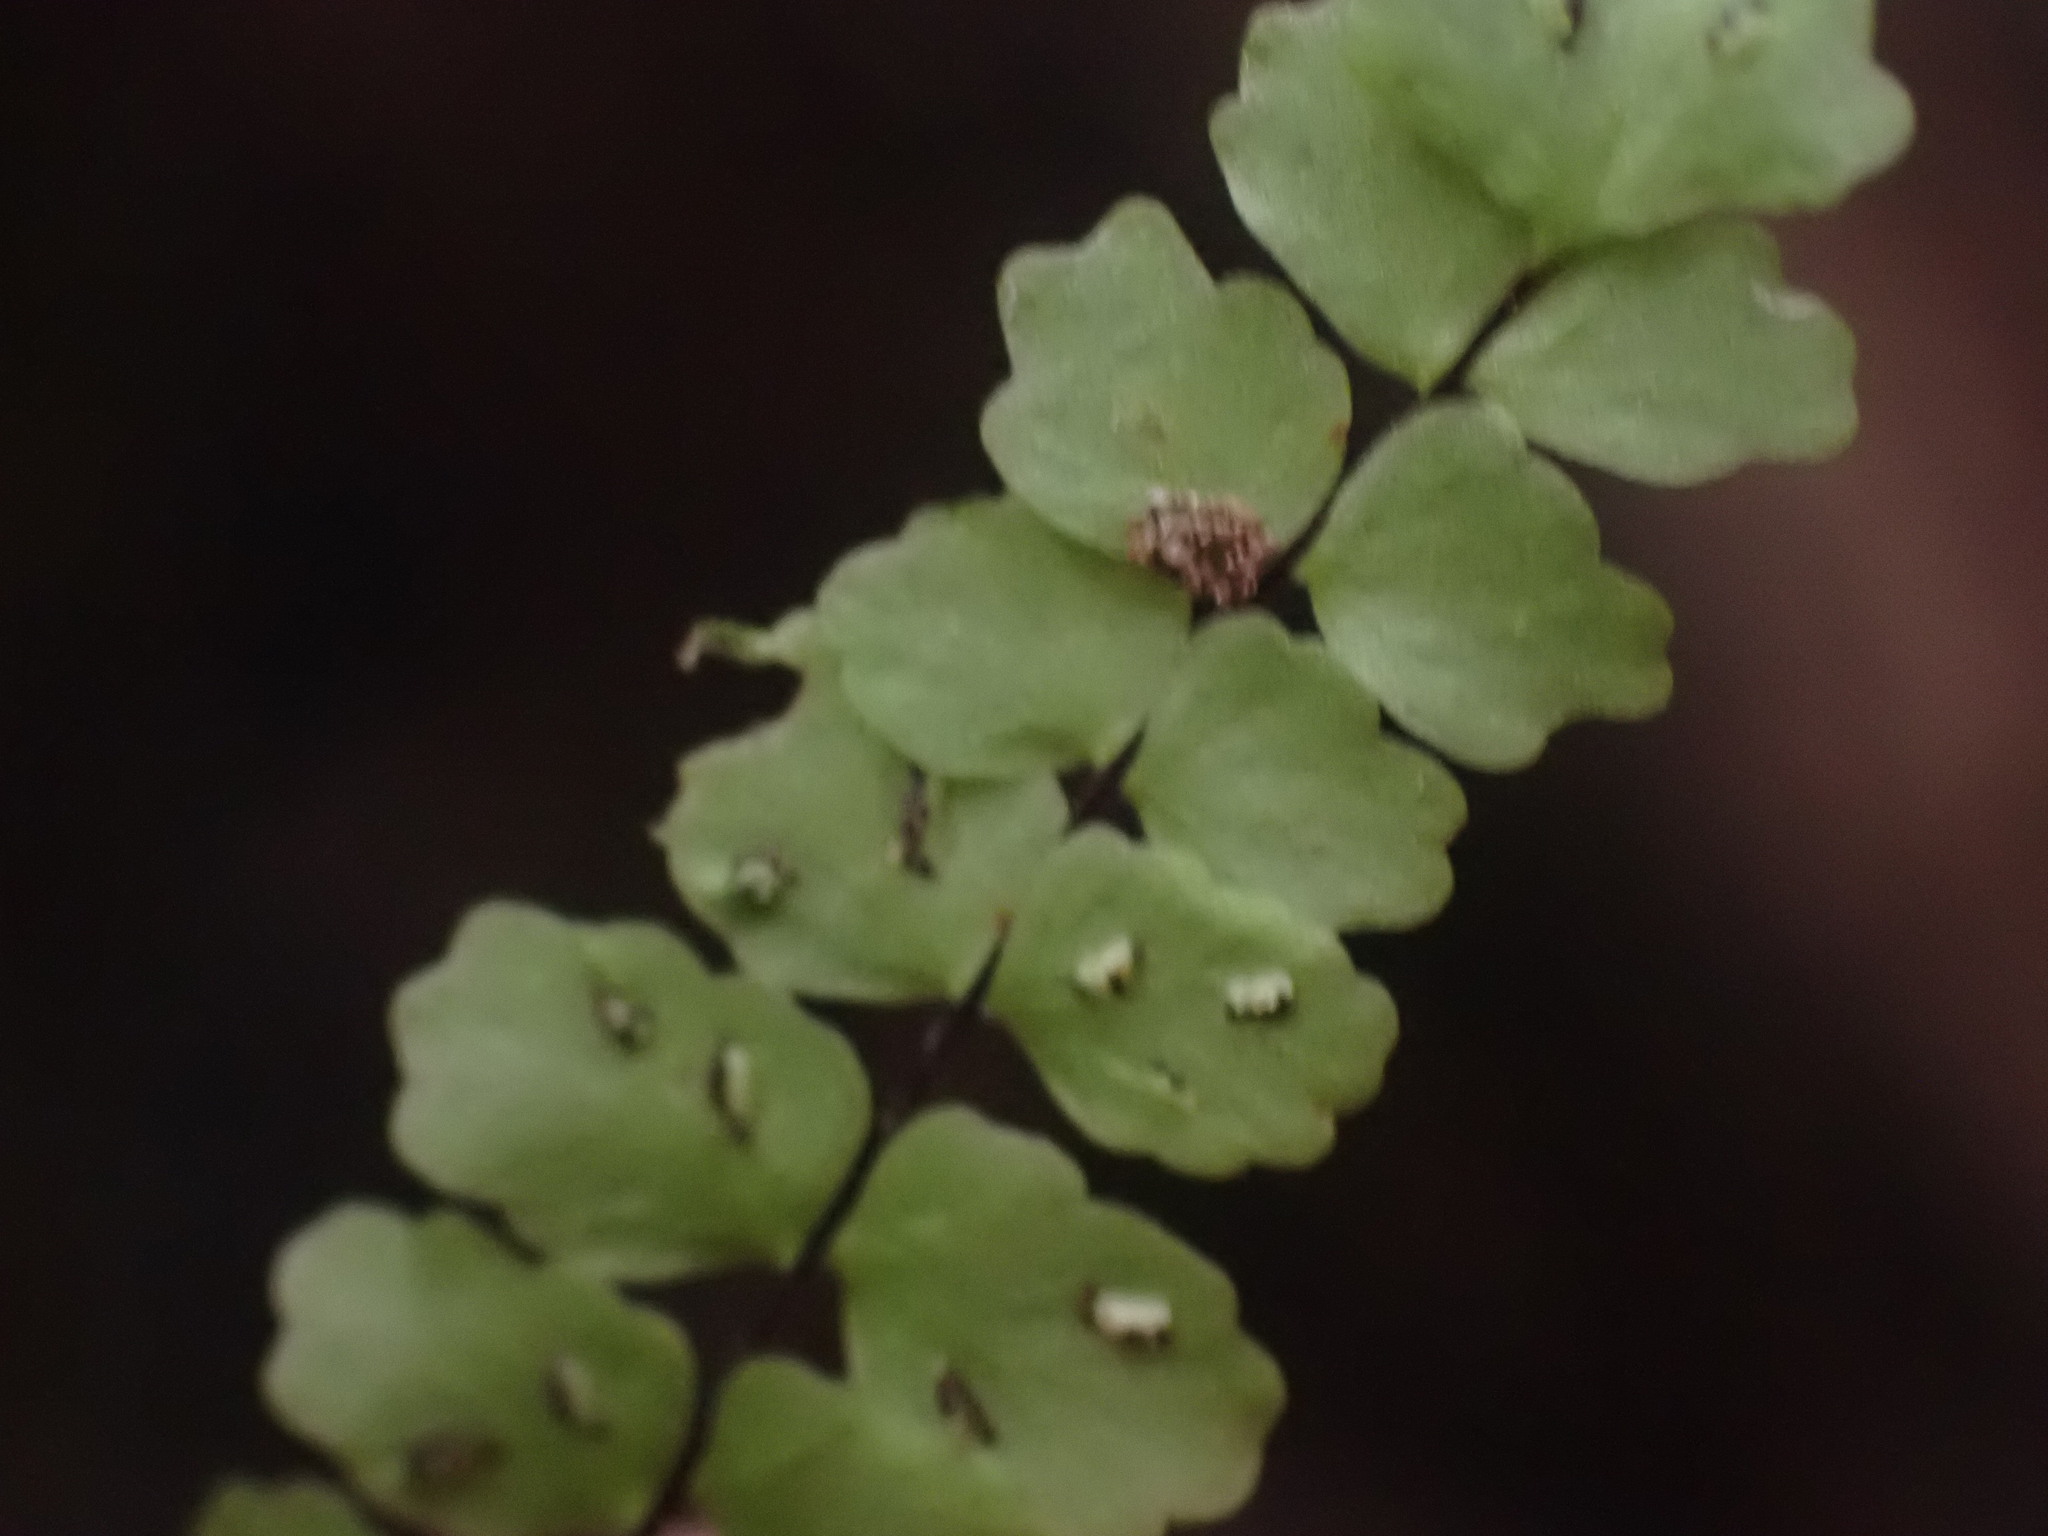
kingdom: Plantae
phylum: Tracheophyta
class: Polypodiopsida
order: Polypodiales
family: Aspleniaceae
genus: Asplenium
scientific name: Asplenium trichomanes
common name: Maidenhair spleenwort
